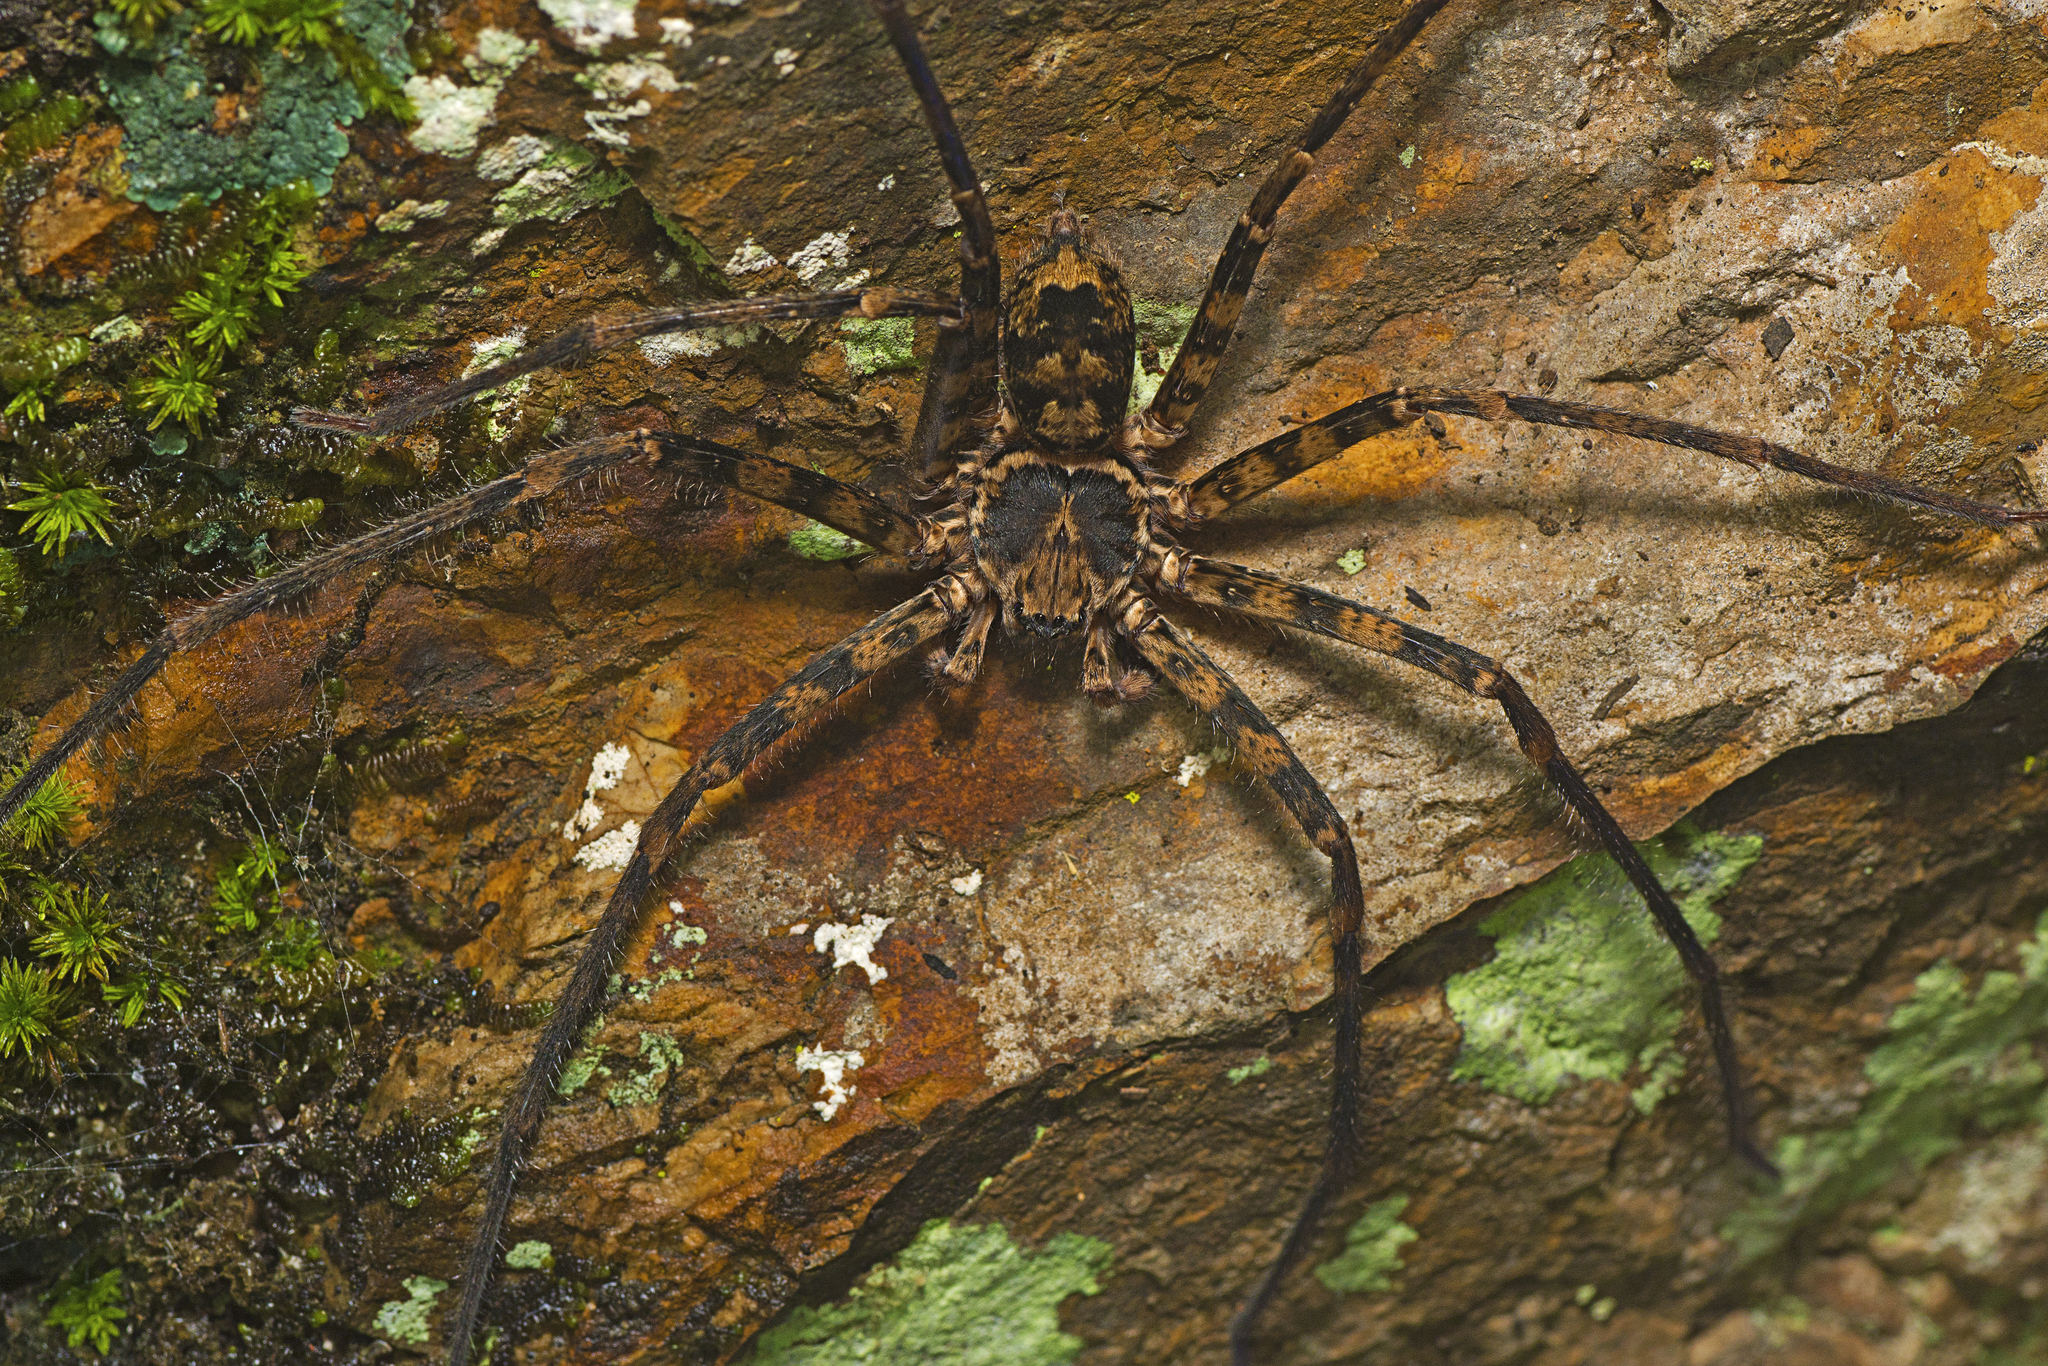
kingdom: Animalia
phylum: Arthropoda
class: Arachnida
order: Araneae
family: Sparassidae
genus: Heteropoda
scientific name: Heteropoda procera
